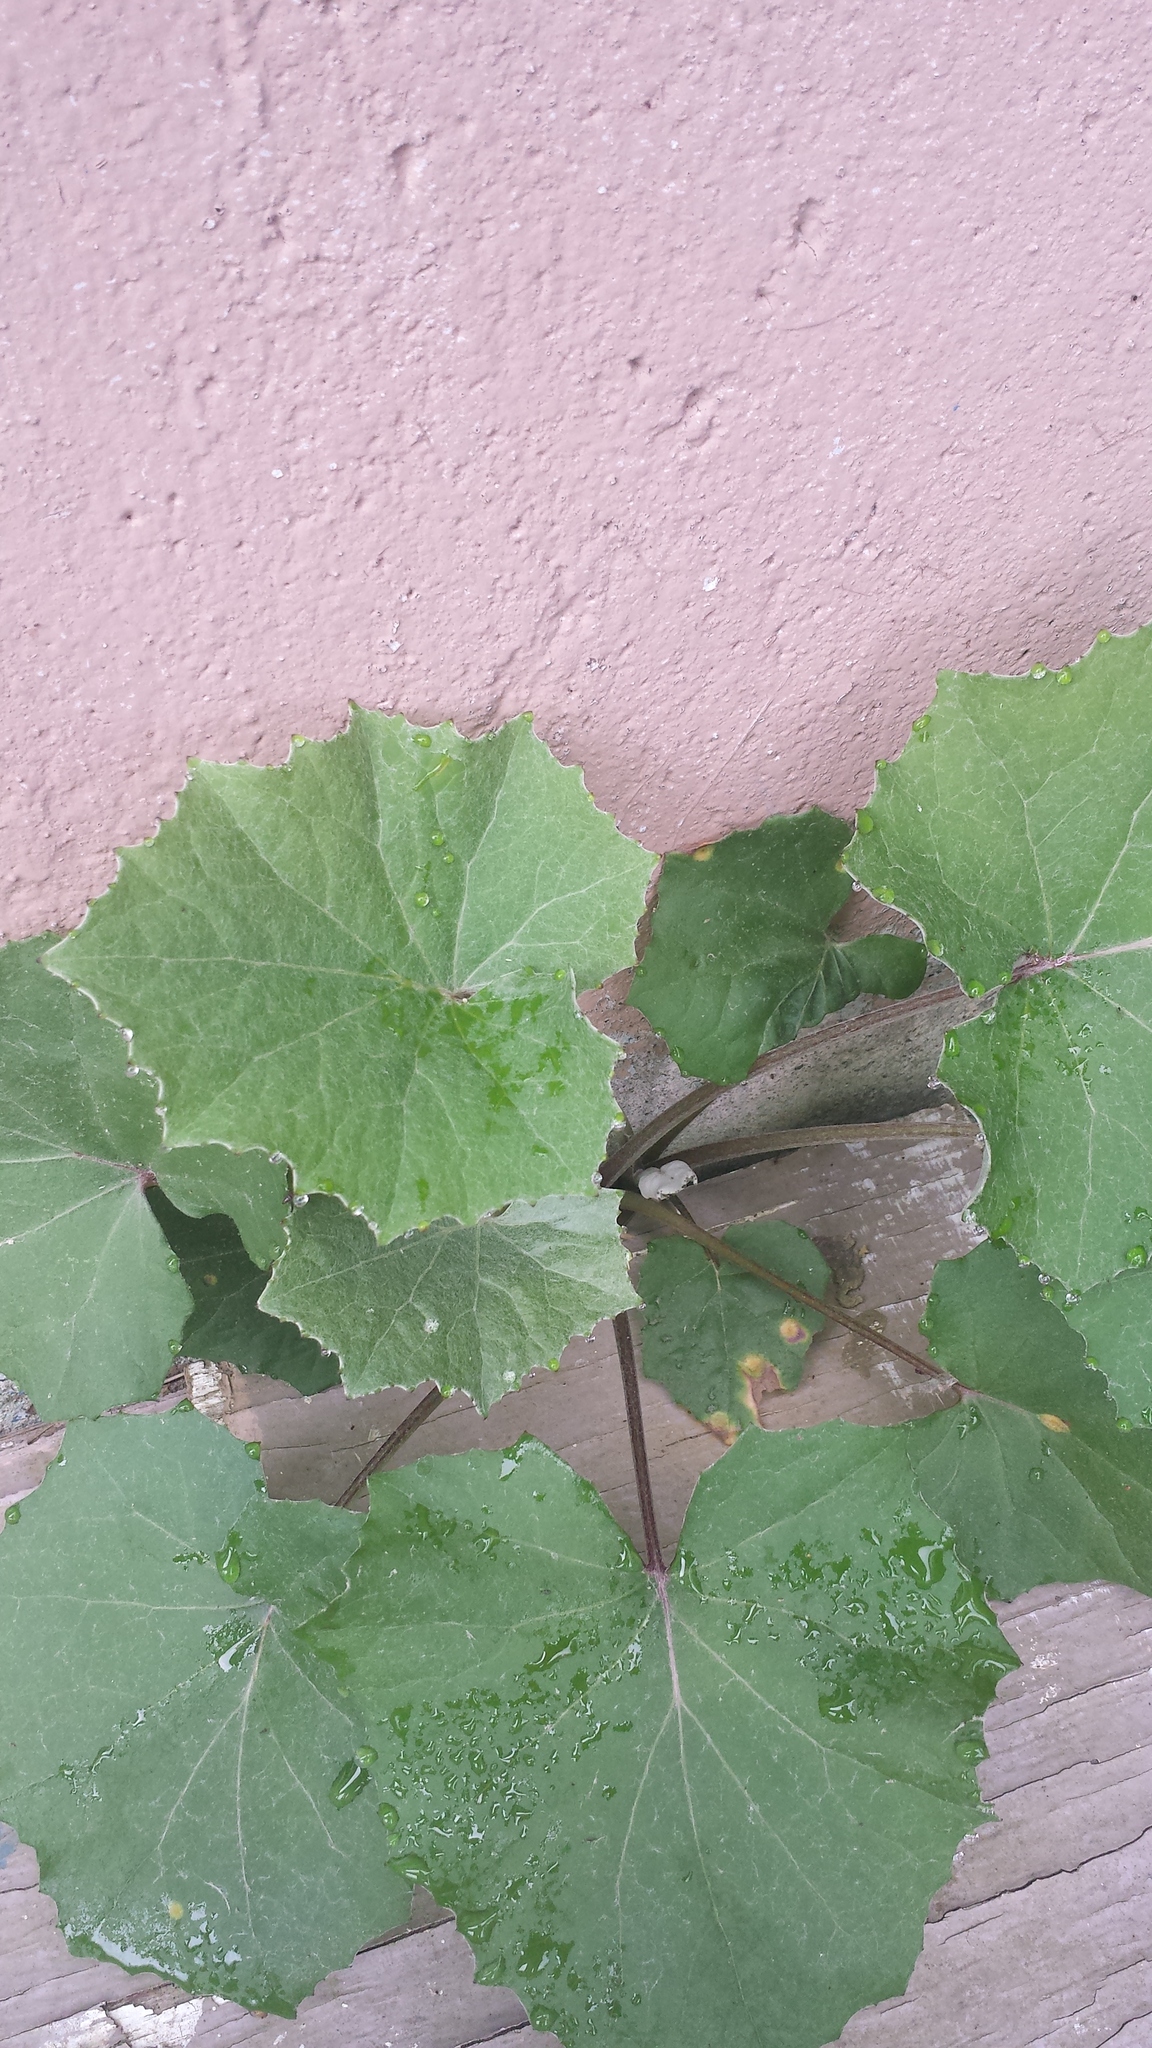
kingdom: Plantae
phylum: Tracheophyta
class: Magnoliopsida
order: Asterales
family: Asteraceae
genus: Tussilago
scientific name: Tussilago farfara
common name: Coltsfoot
